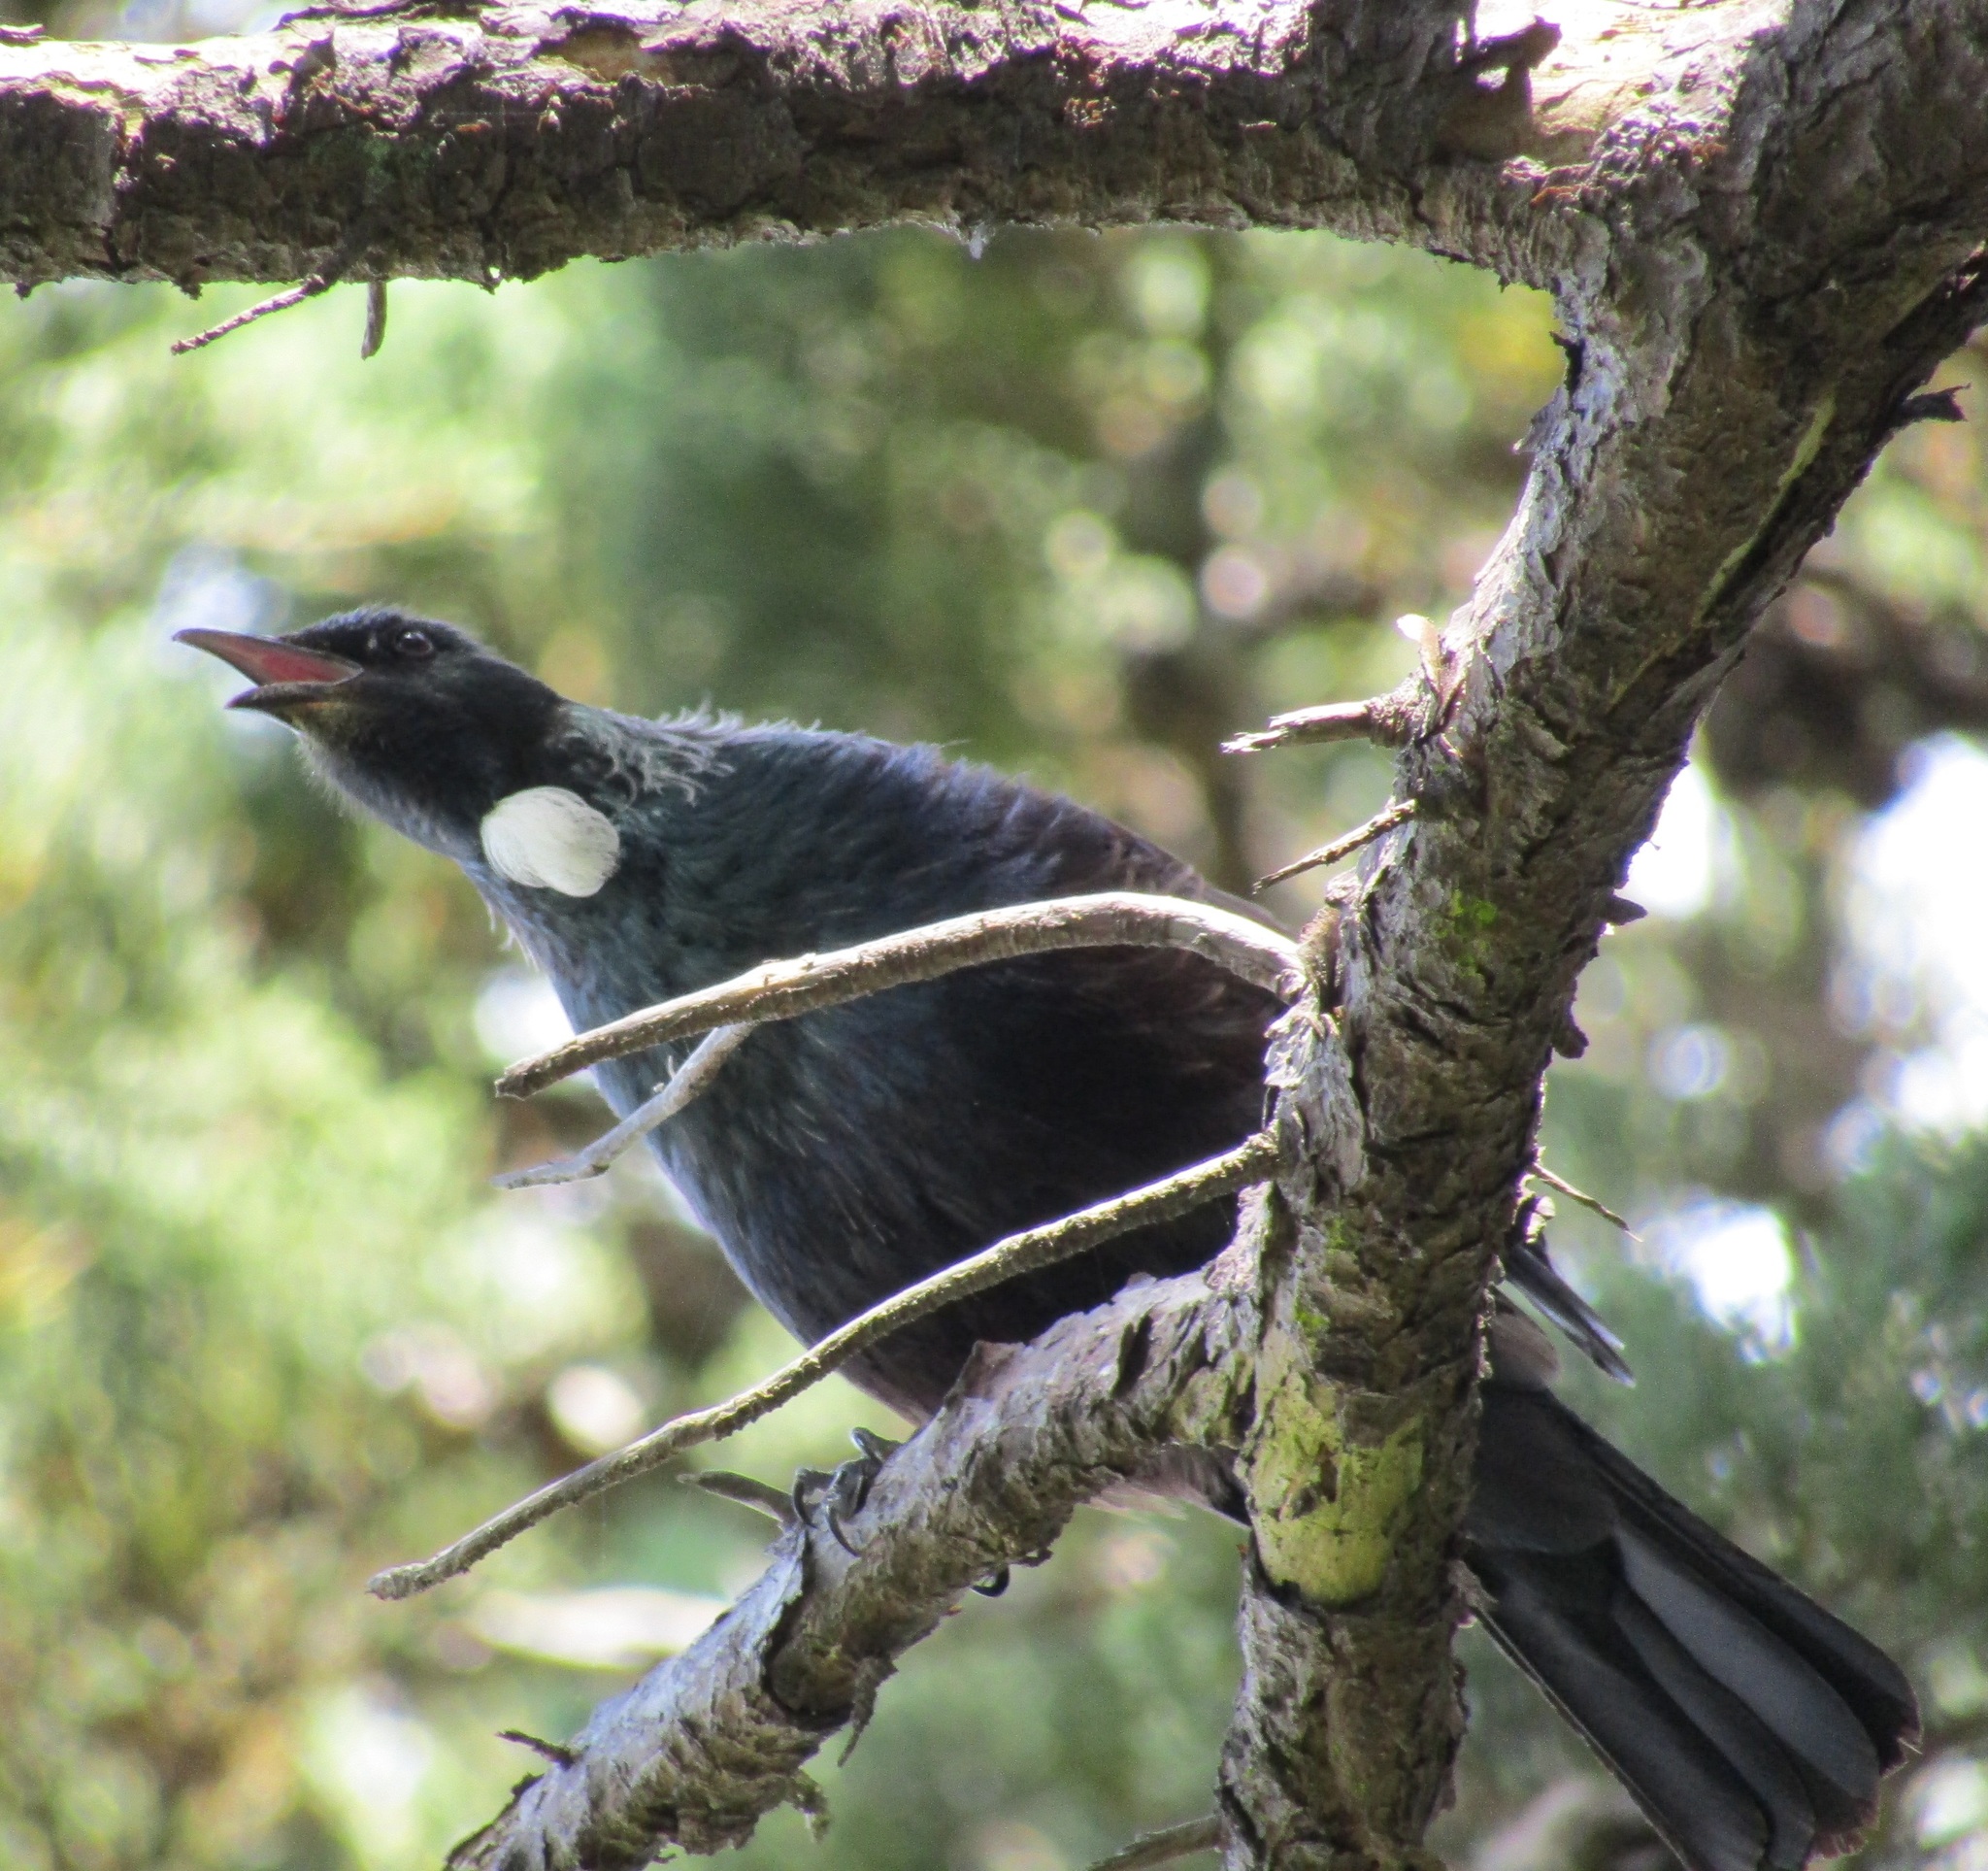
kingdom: Animalia
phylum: Chordata
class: Aves
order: Passeriformes
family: Meliphagidae
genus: Prosthemadera
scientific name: Prosthemadera novaeseelandiae
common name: Tui
